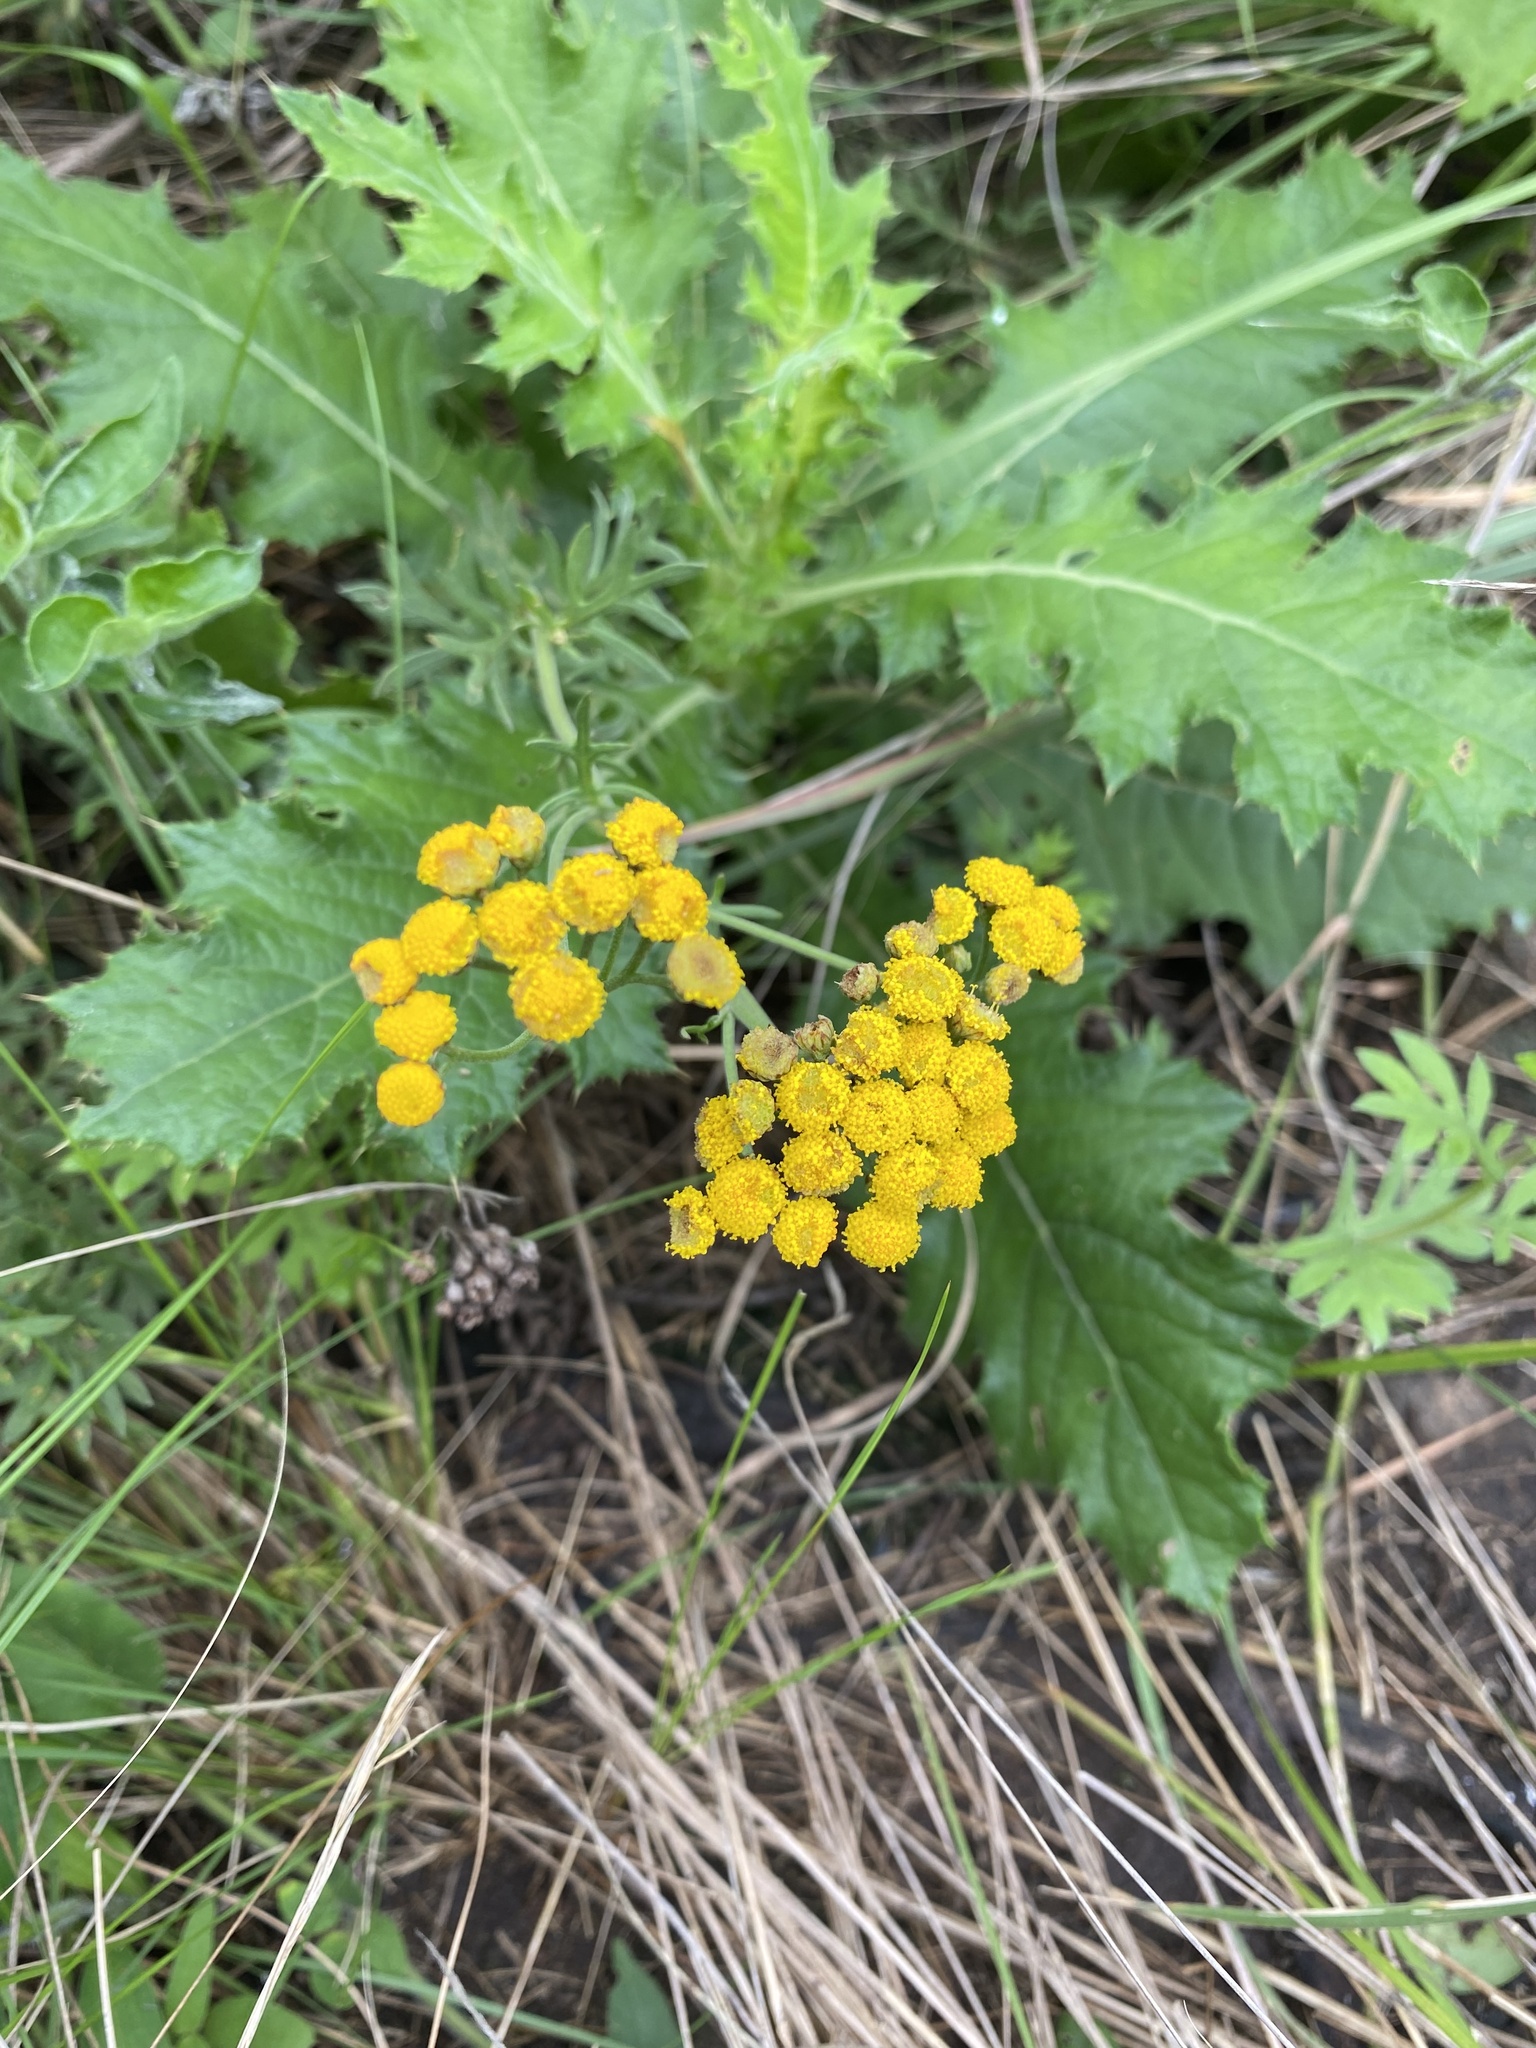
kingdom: Plantae
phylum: Tracheophyta
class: Magnoliopsida
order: Asterales
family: Asteraceae
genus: Schistostephium
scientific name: Schistostephium crataegifolium
